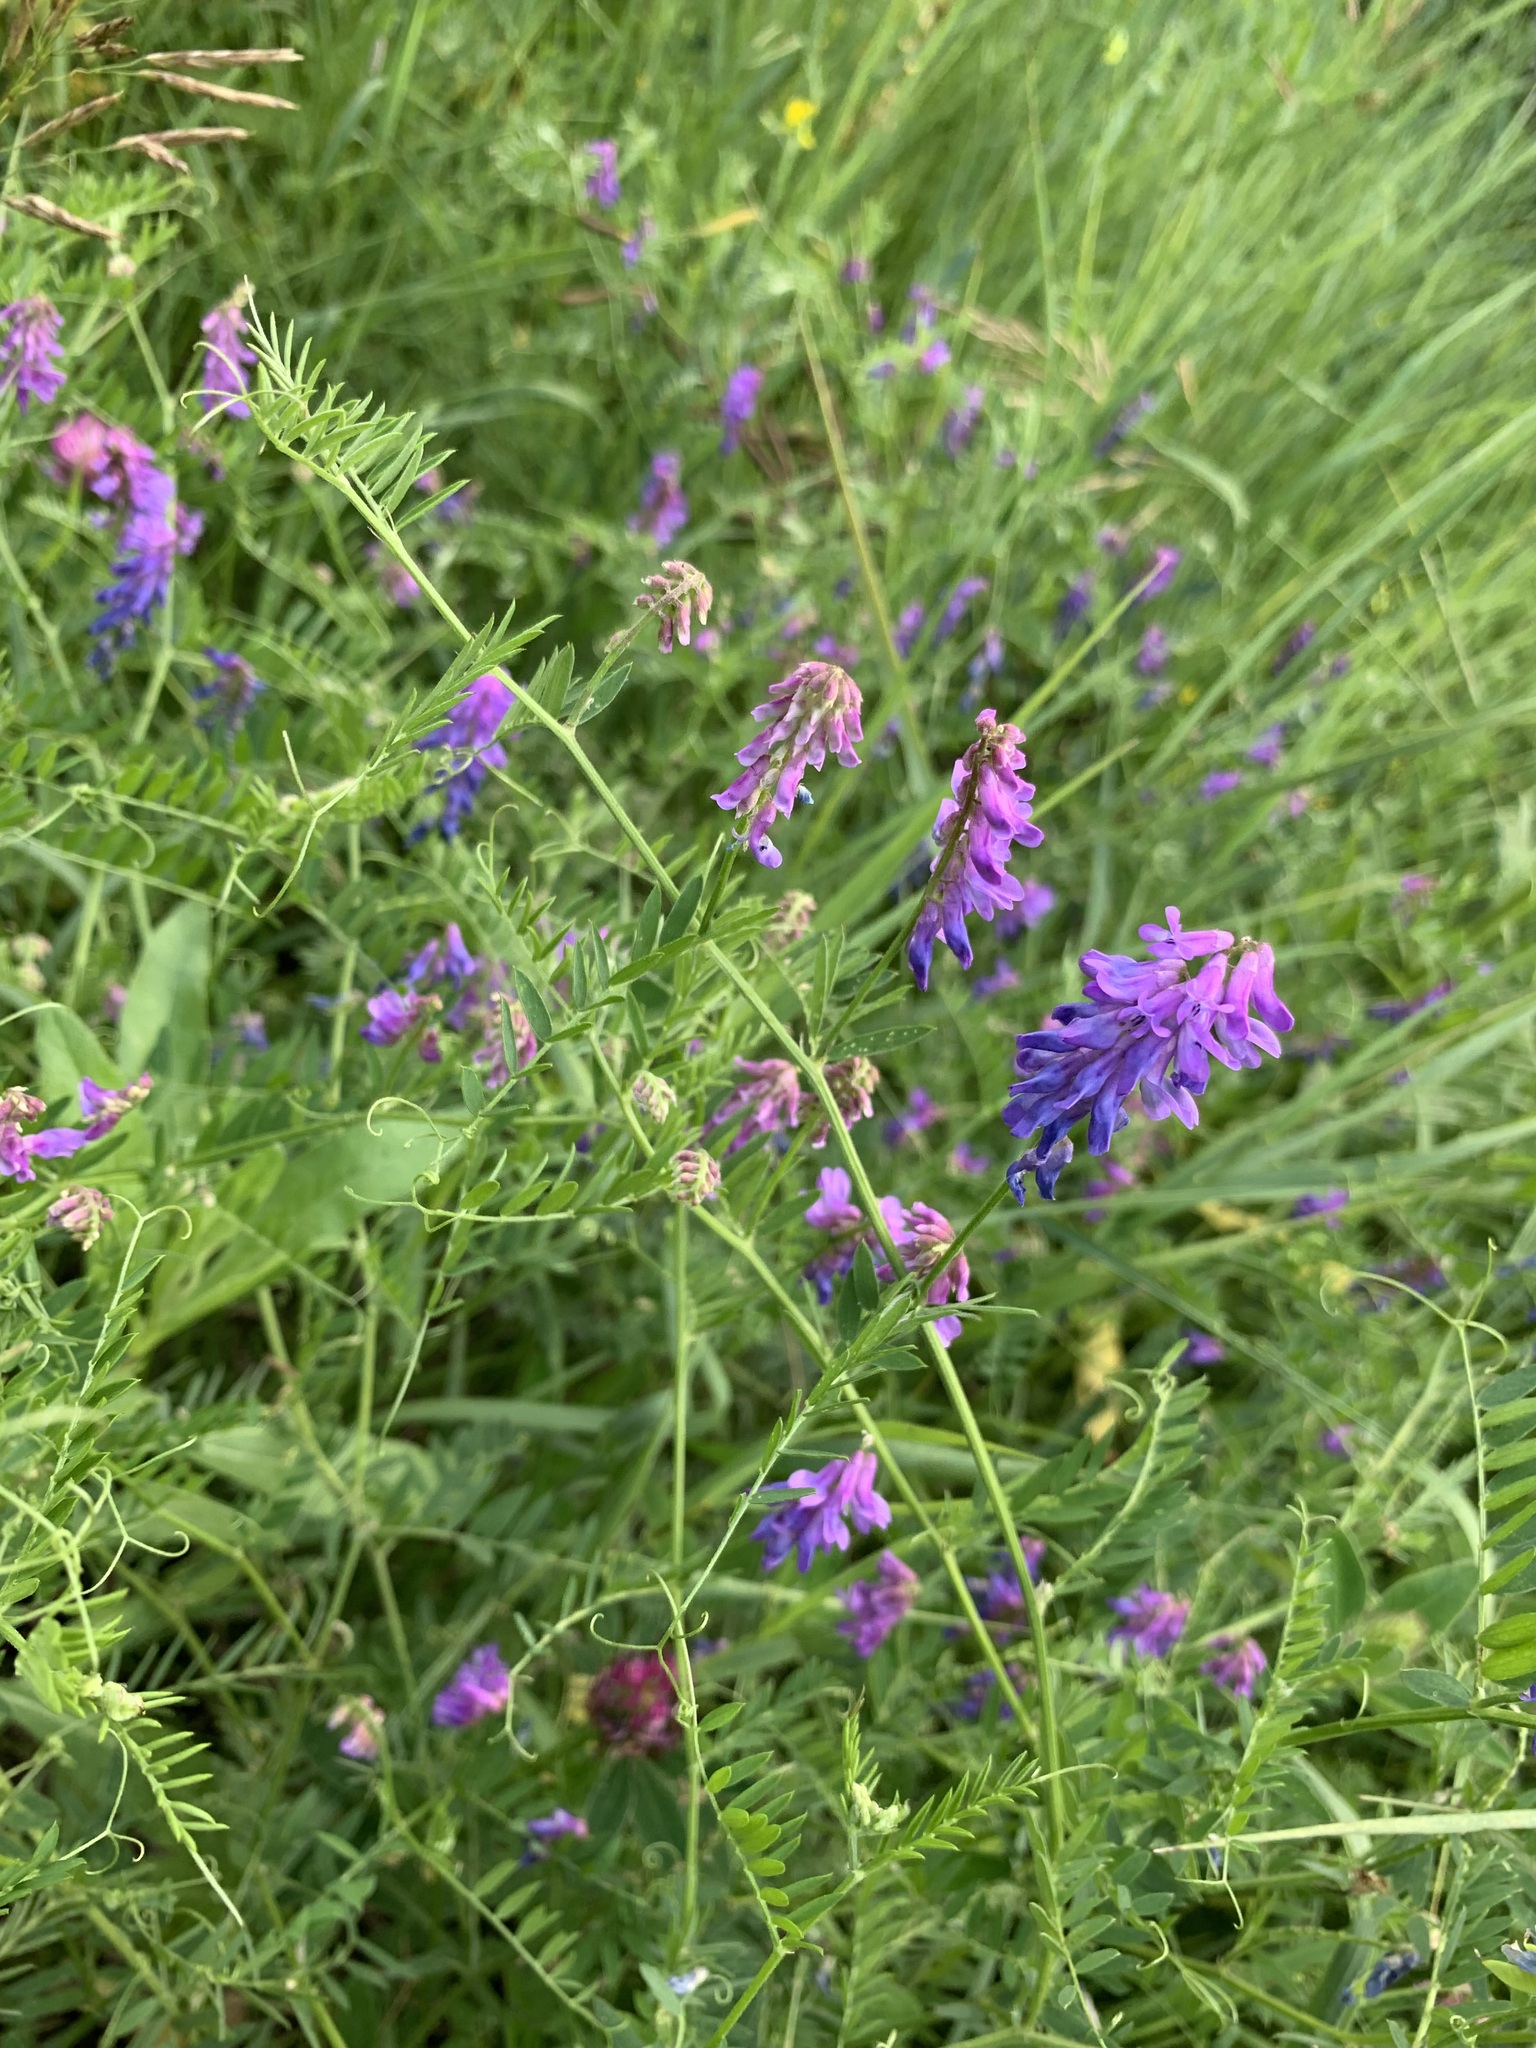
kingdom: Plantae
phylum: Tracheophyta
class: Magnoliopsida
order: Fabales
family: Fabaceae
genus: Vicia
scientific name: Vicia cracca
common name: Bird vetch
